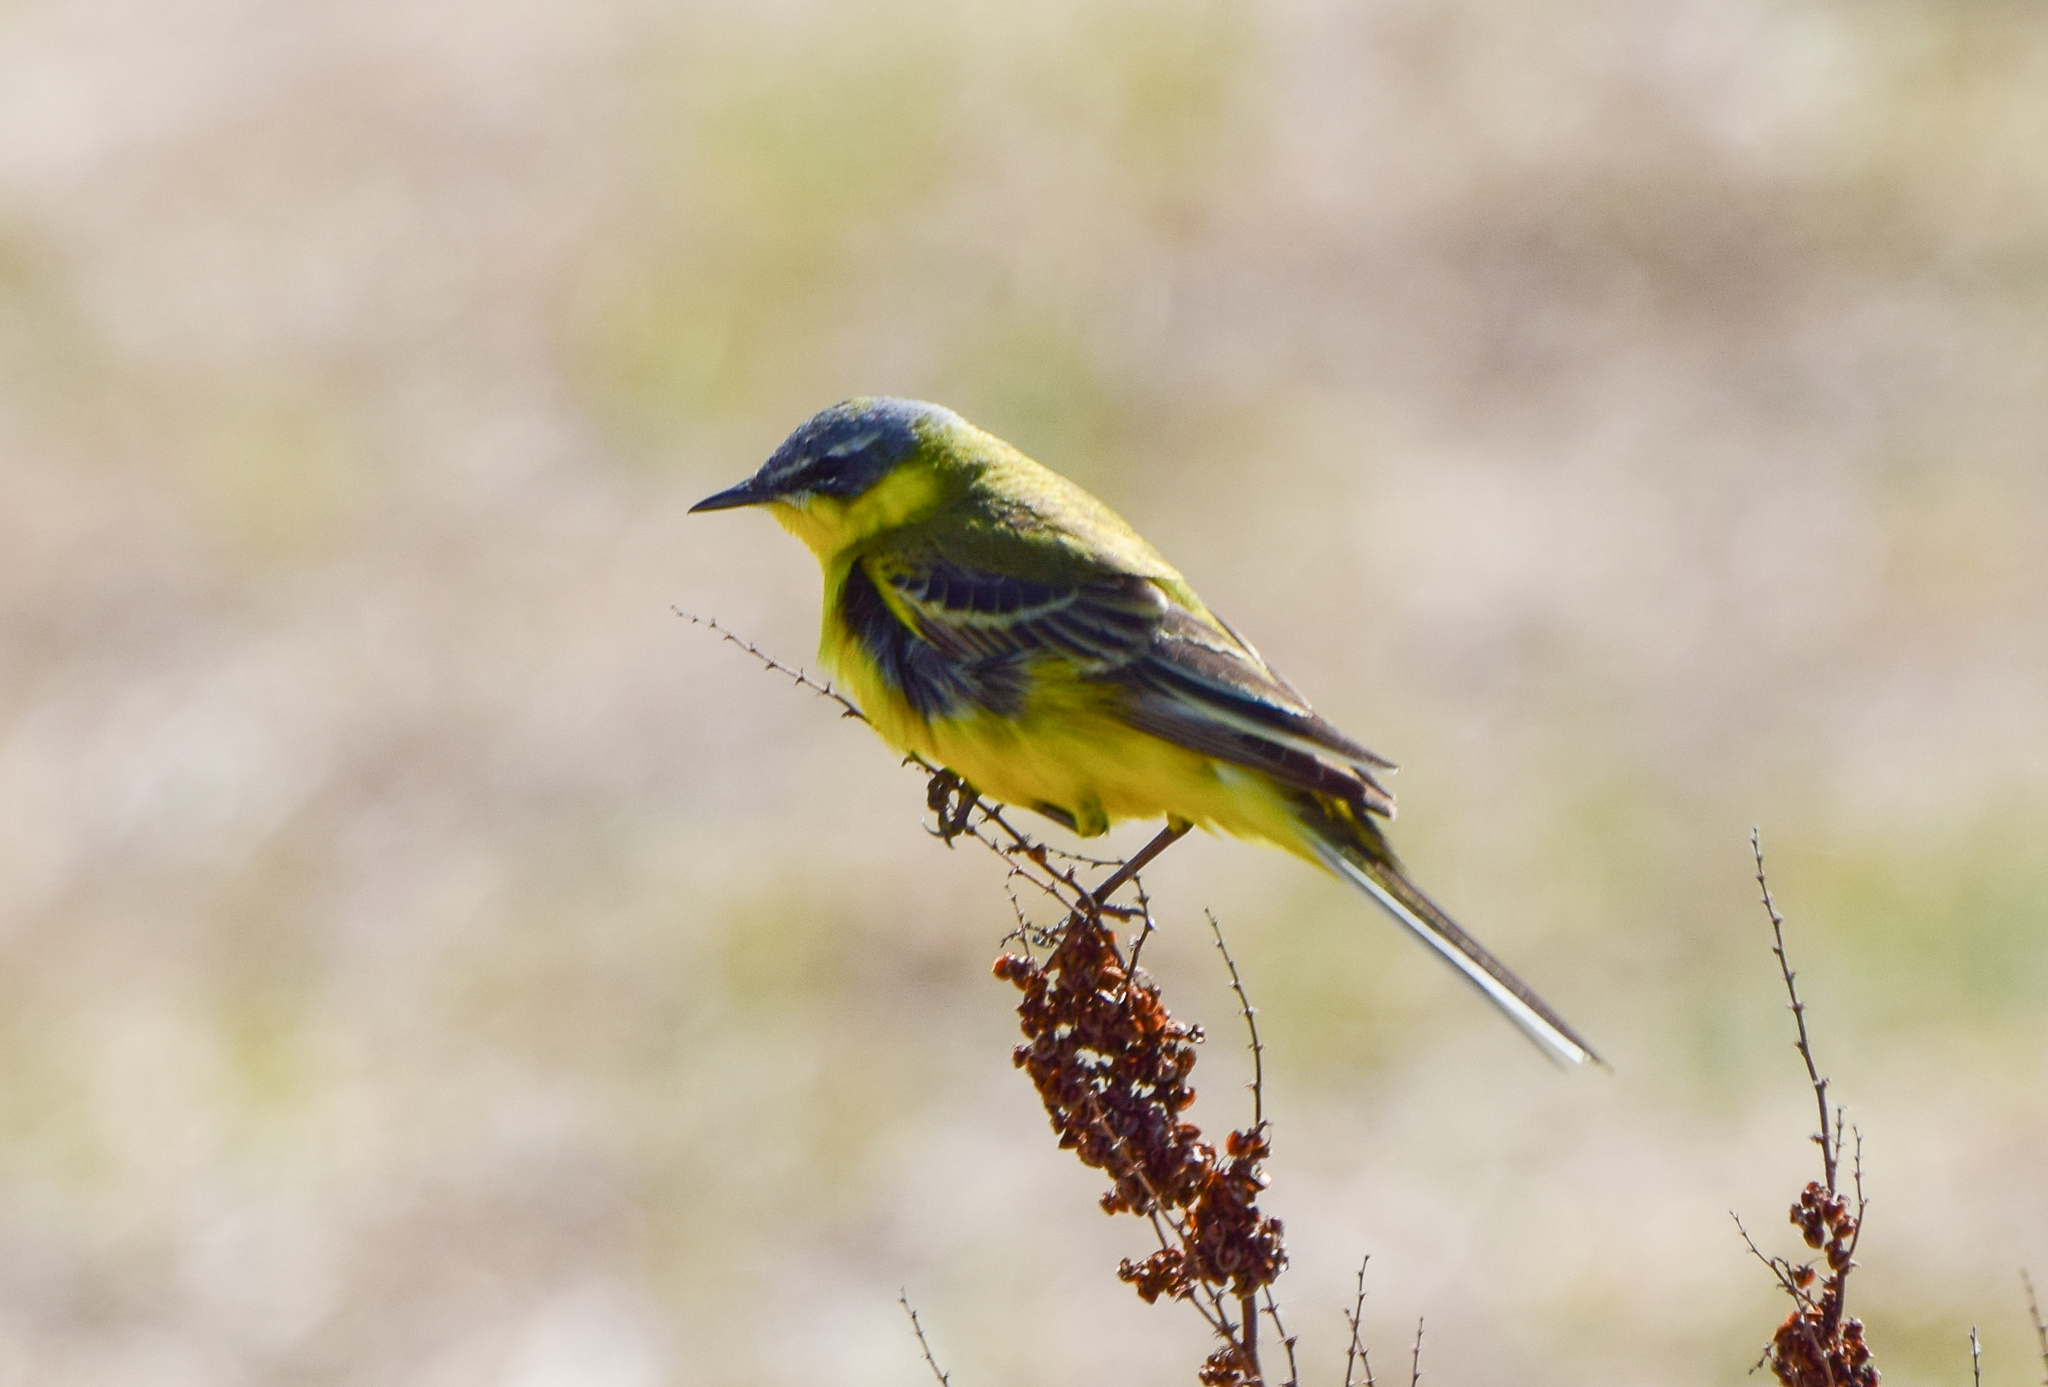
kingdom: Animalia
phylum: Chordata
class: Aves
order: Passeriformes
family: Motacillidae
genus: Motacilla
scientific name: Motacilla flava
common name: Western yellow wagtail
